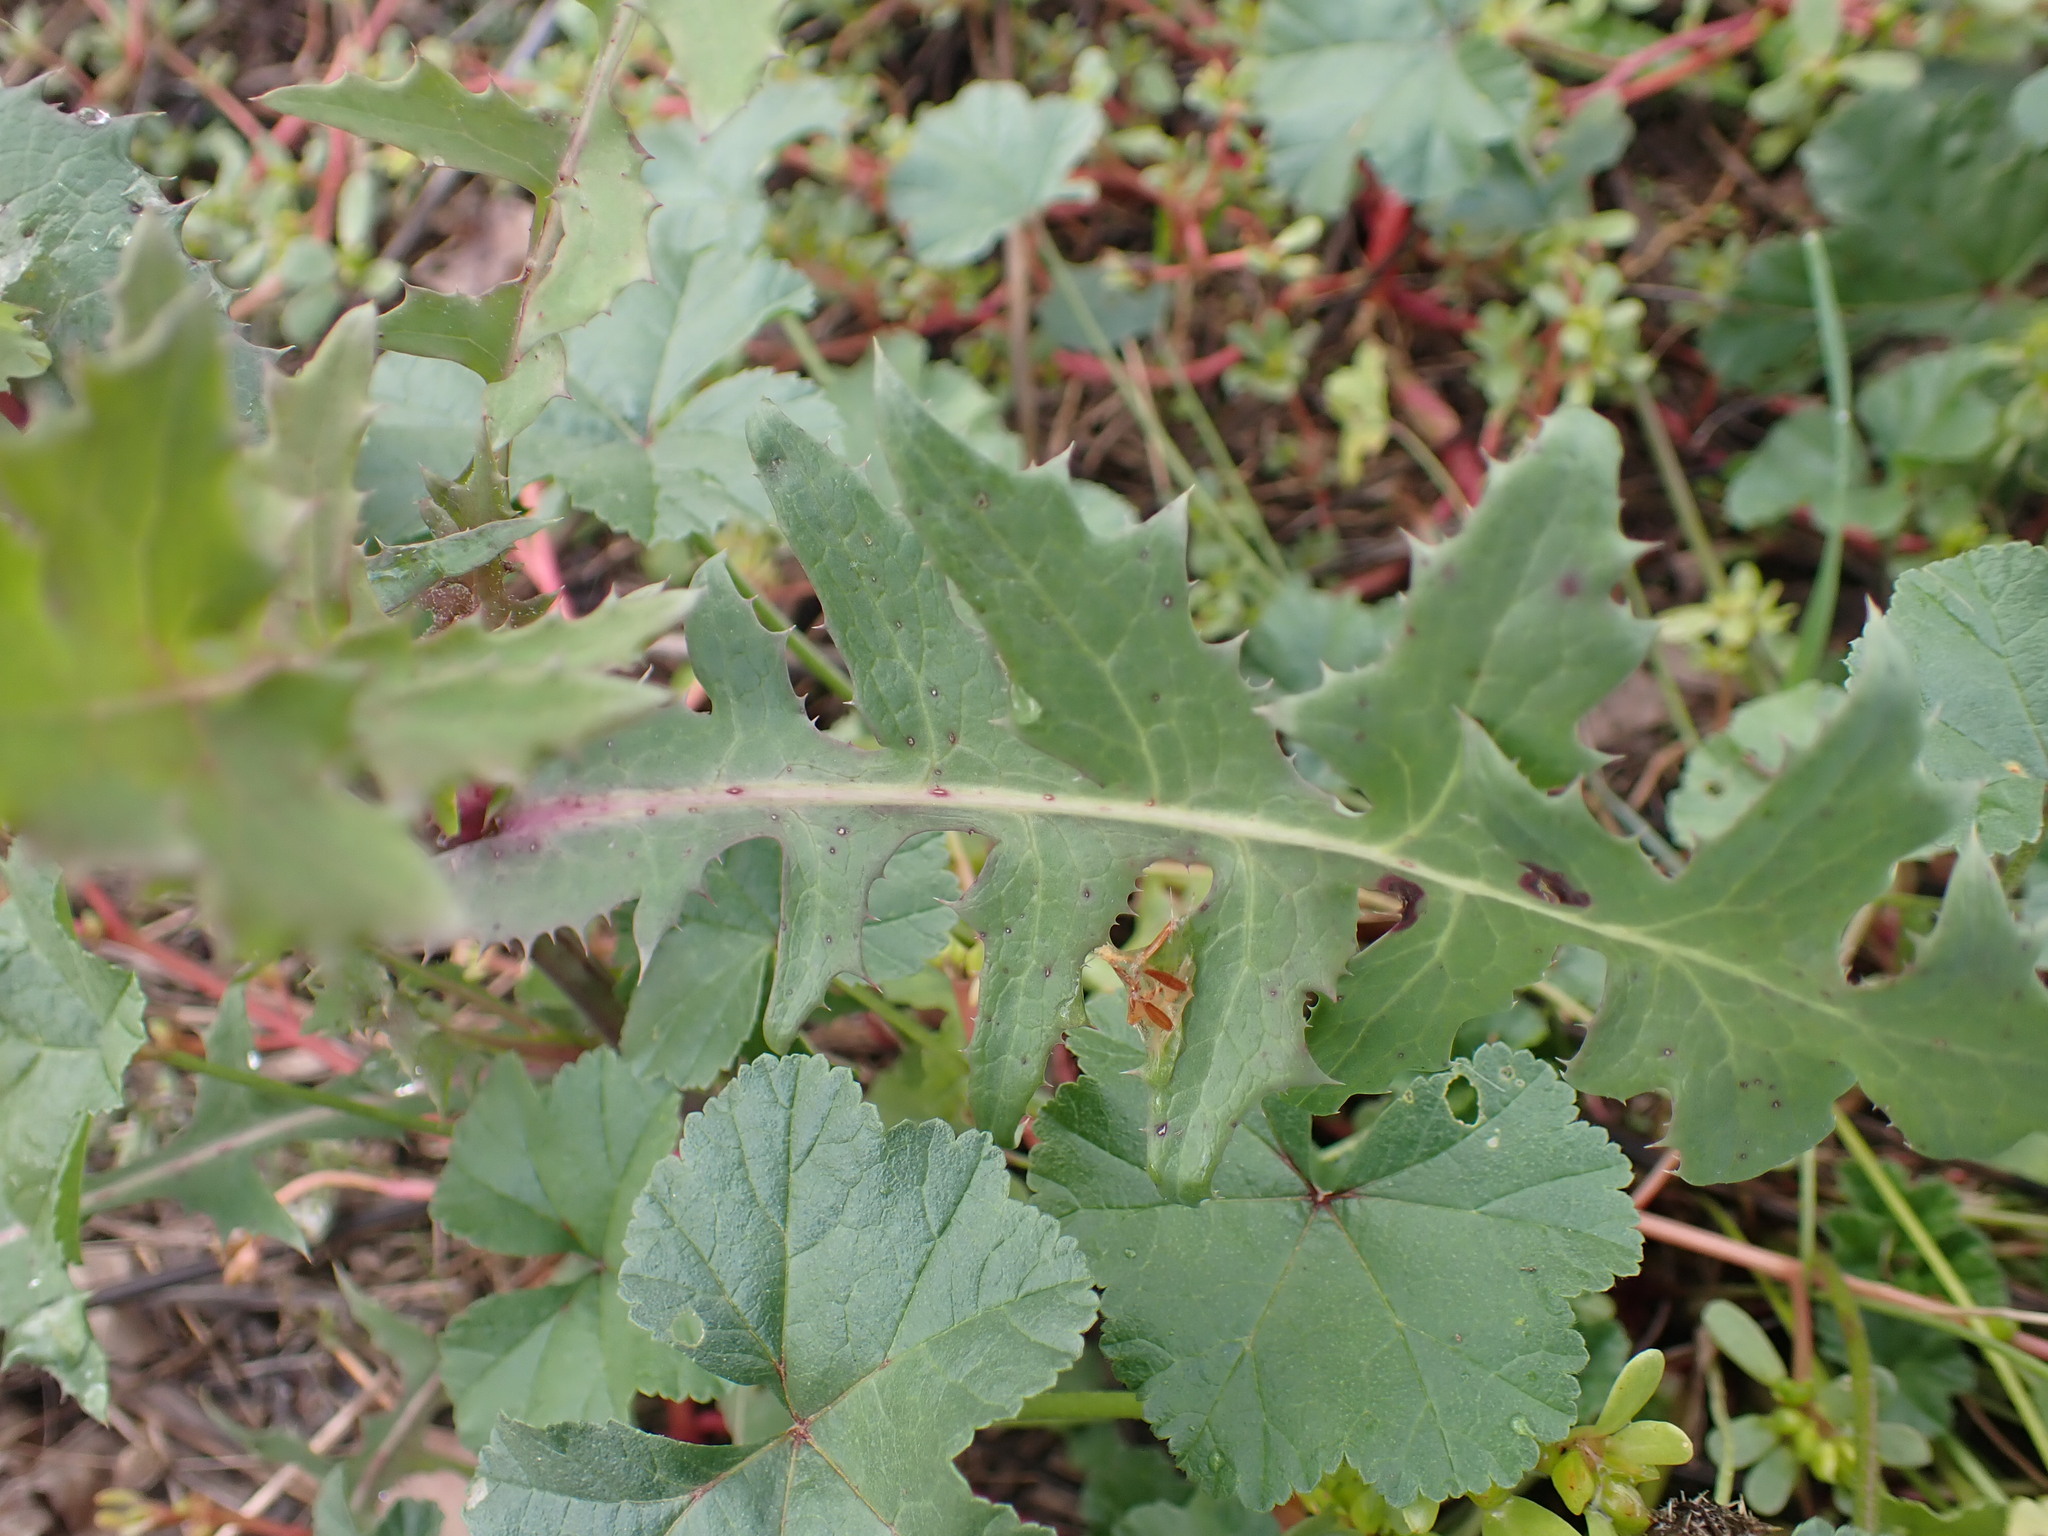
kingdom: Plantae
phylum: Tracheophyta
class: Magnoliopsida
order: Asterales
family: Asteraceae
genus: Sonchus
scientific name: Sonchus oleraceus
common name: Common sowthistle
